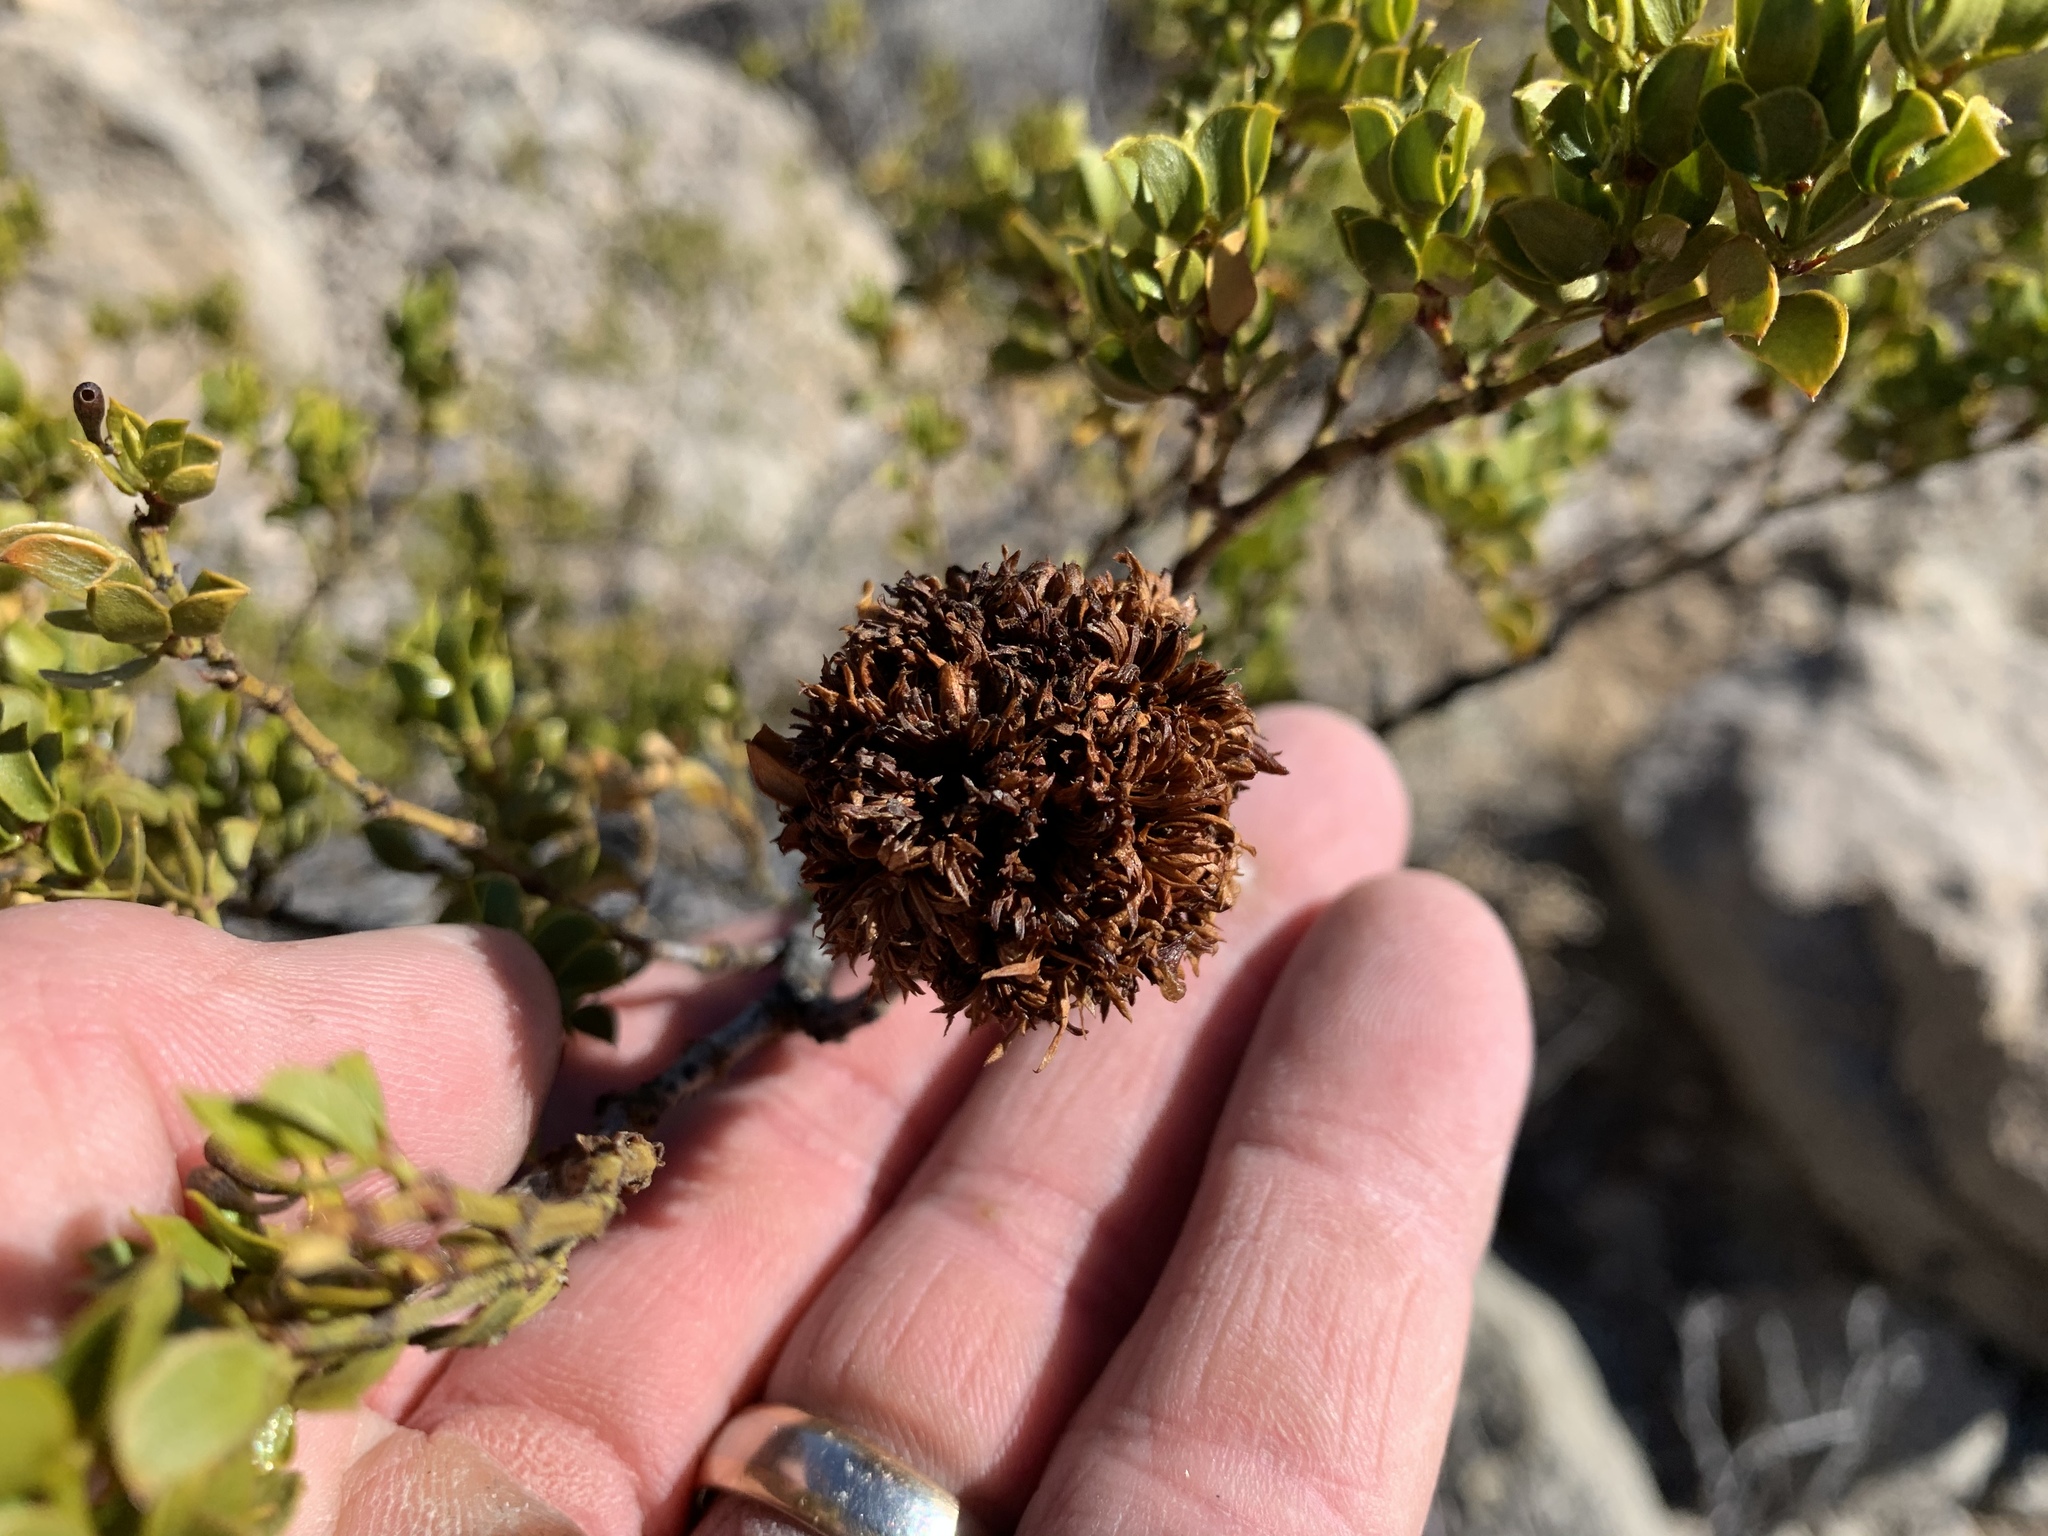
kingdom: Animalia
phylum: Arthropoda
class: Insecta
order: Diptera
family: Cecidomyiidae
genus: Asphondylia
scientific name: Asphondylia auripila
